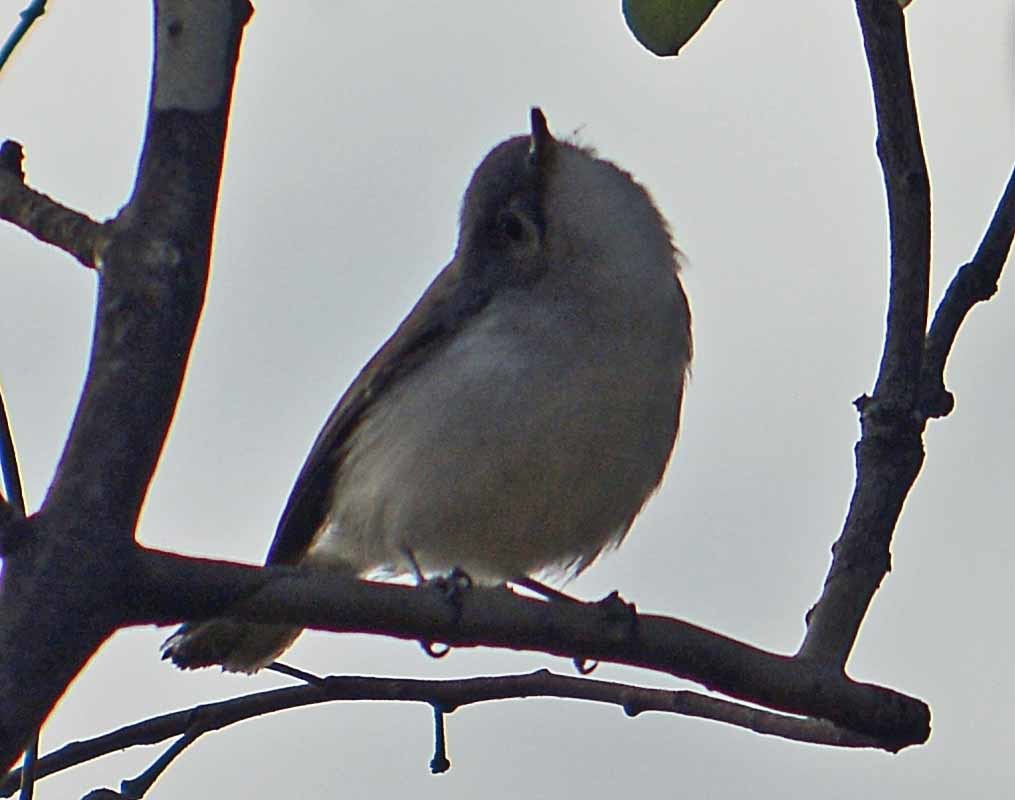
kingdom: Animalia
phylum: Chordata
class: Aves
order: Passeriformes
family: Polioptilidae
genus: Polioptila
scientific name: Polioptila caerulea
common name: Blue-gray gnatcatcher
